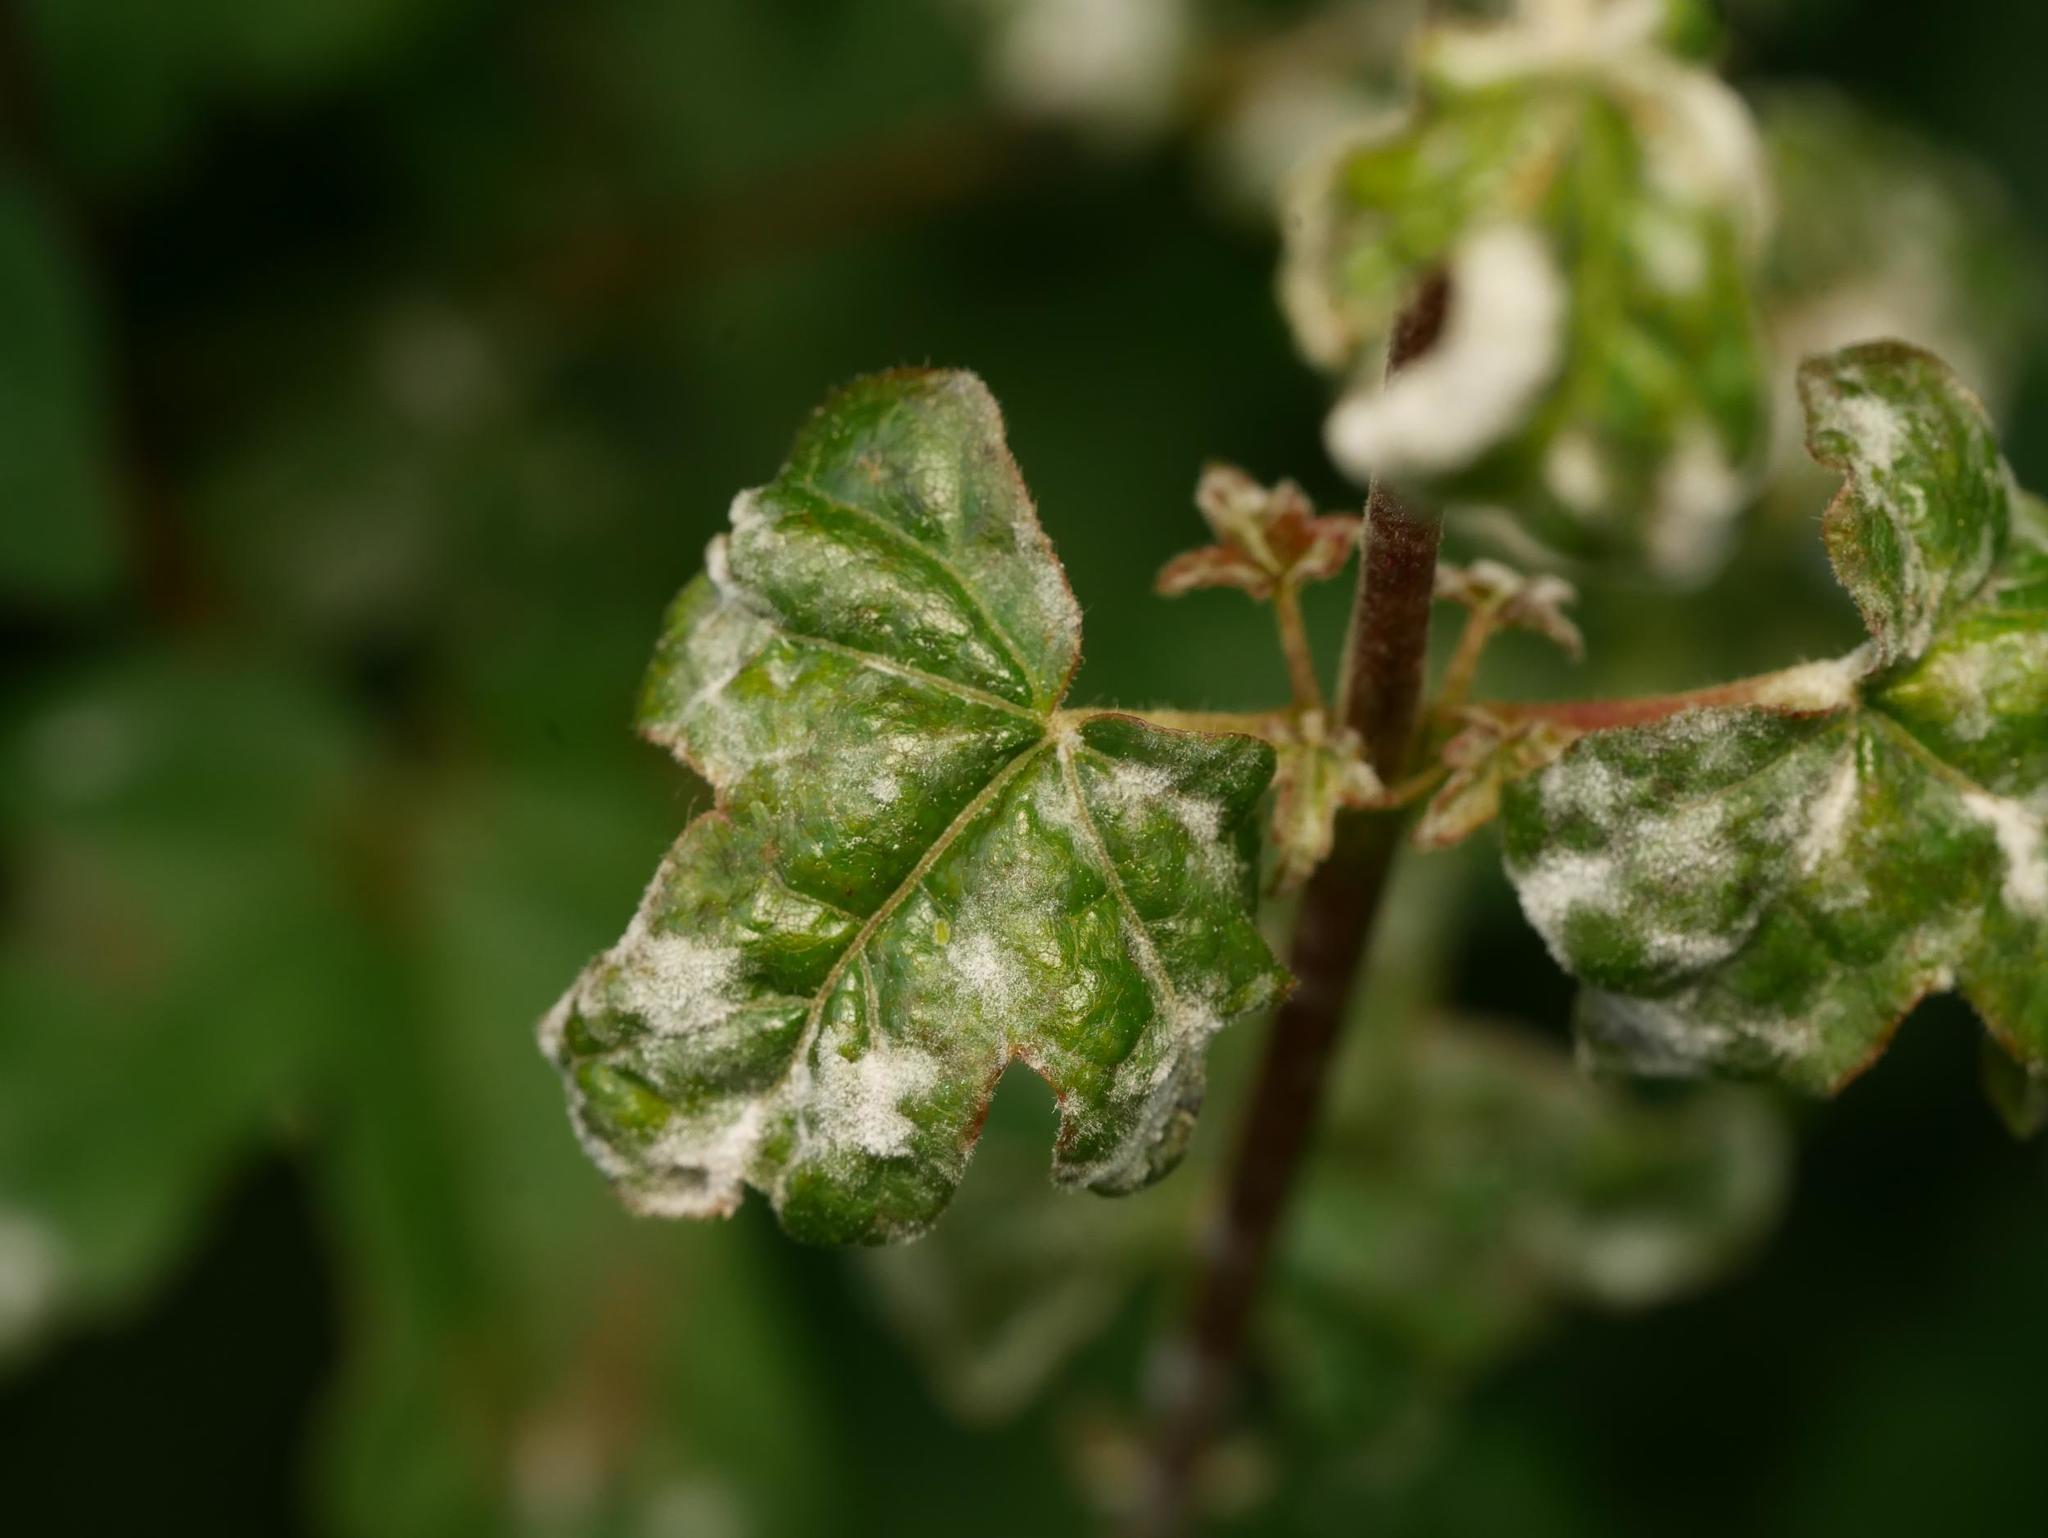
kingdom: Fungi
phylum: Ascomycota
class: Leotiomycetes
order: Helotiales
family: Erysiphaceae
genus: Sawadaea
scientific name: Sawadaea bicornis
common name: Maple mildew
